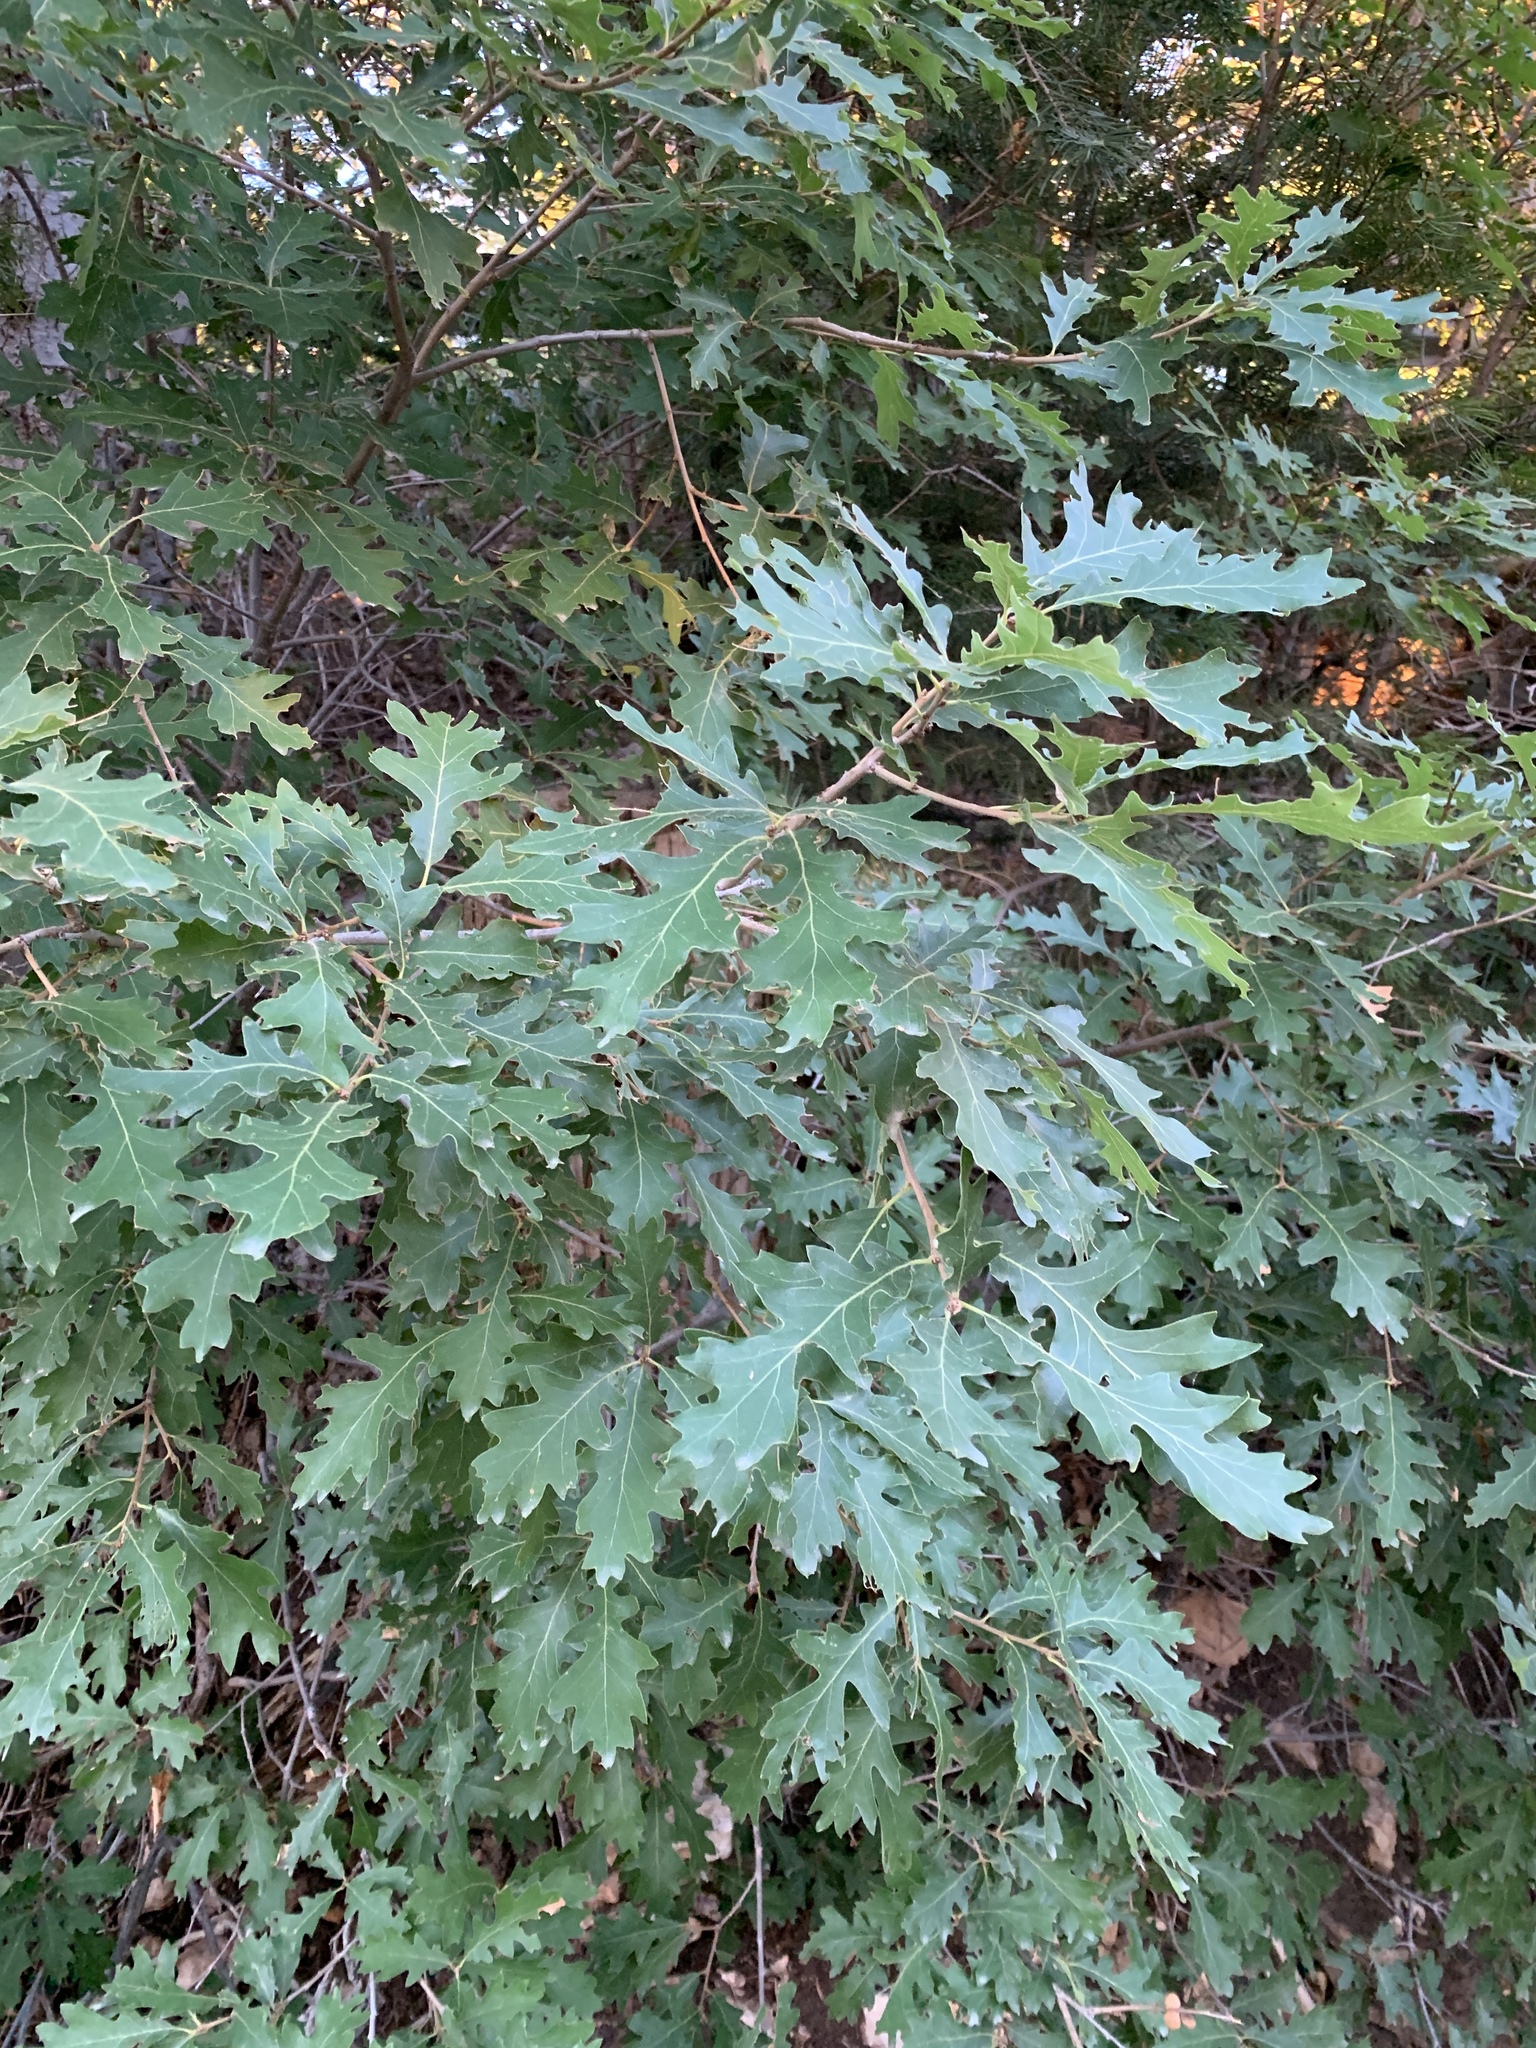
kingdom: Plantae
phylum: Tracheophyta
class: Magnoliopsida
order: Fagales
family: Fagaceae
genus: Quercus
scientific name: Quercus gambelii
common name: Gambel oak
